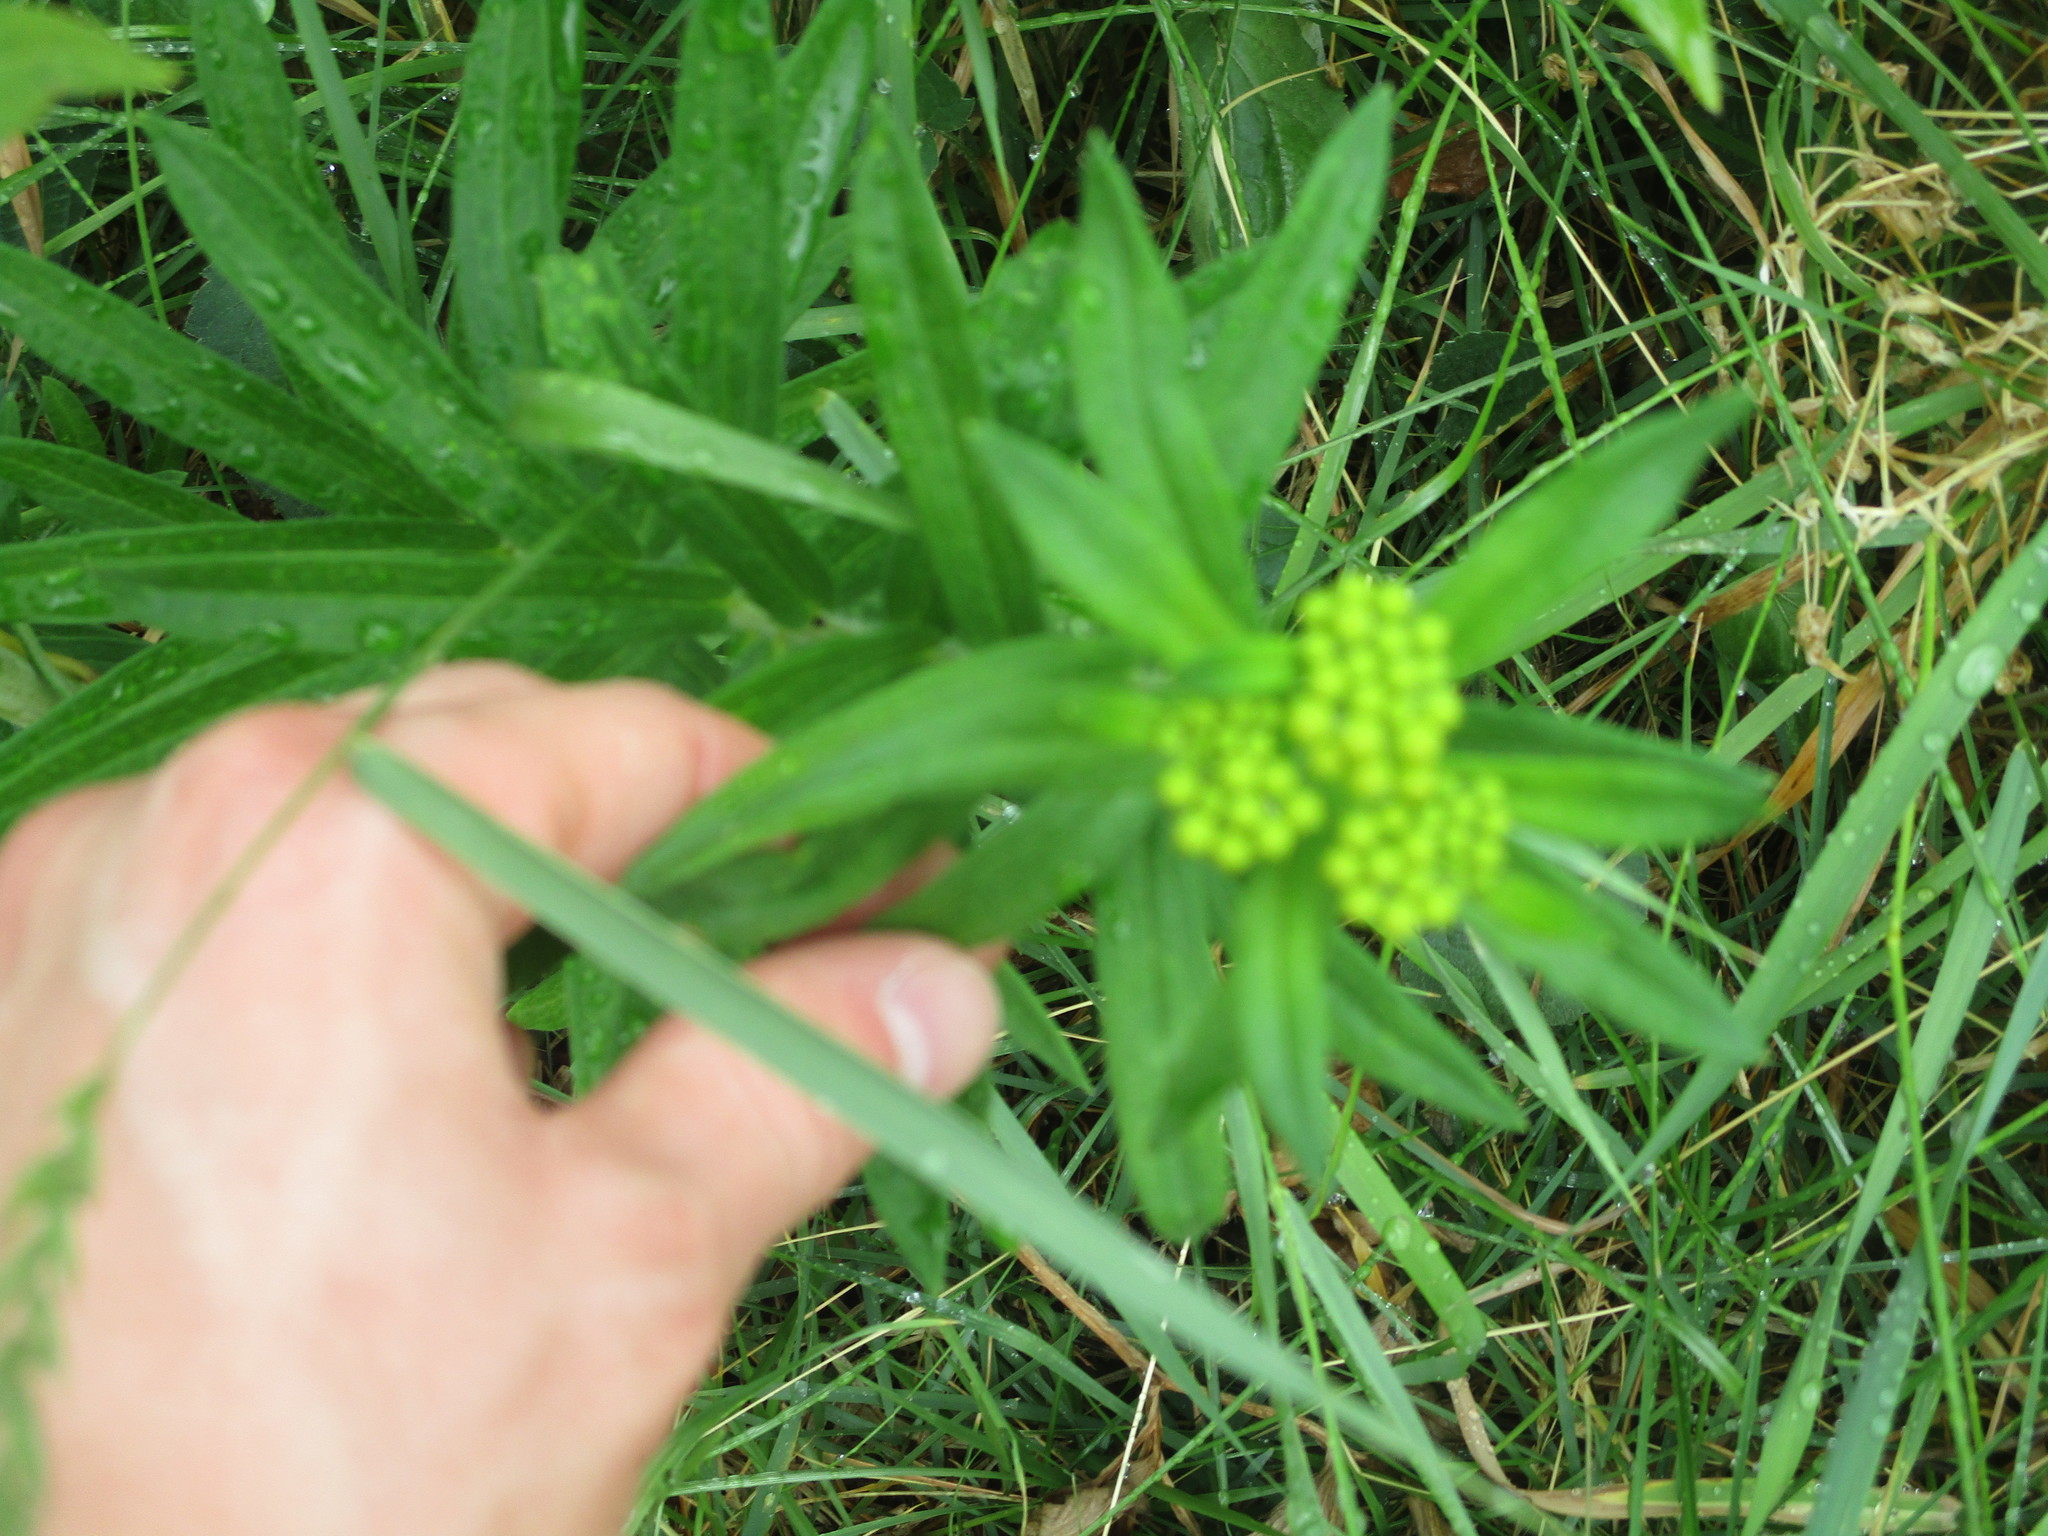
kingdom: Plantae
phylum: Tracheophyta
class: Magnoliopsida
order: Gentianales
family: Apocynaceae
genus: Asclepias
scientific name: Asclepias tuberosa
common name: Butterfly milkweed
